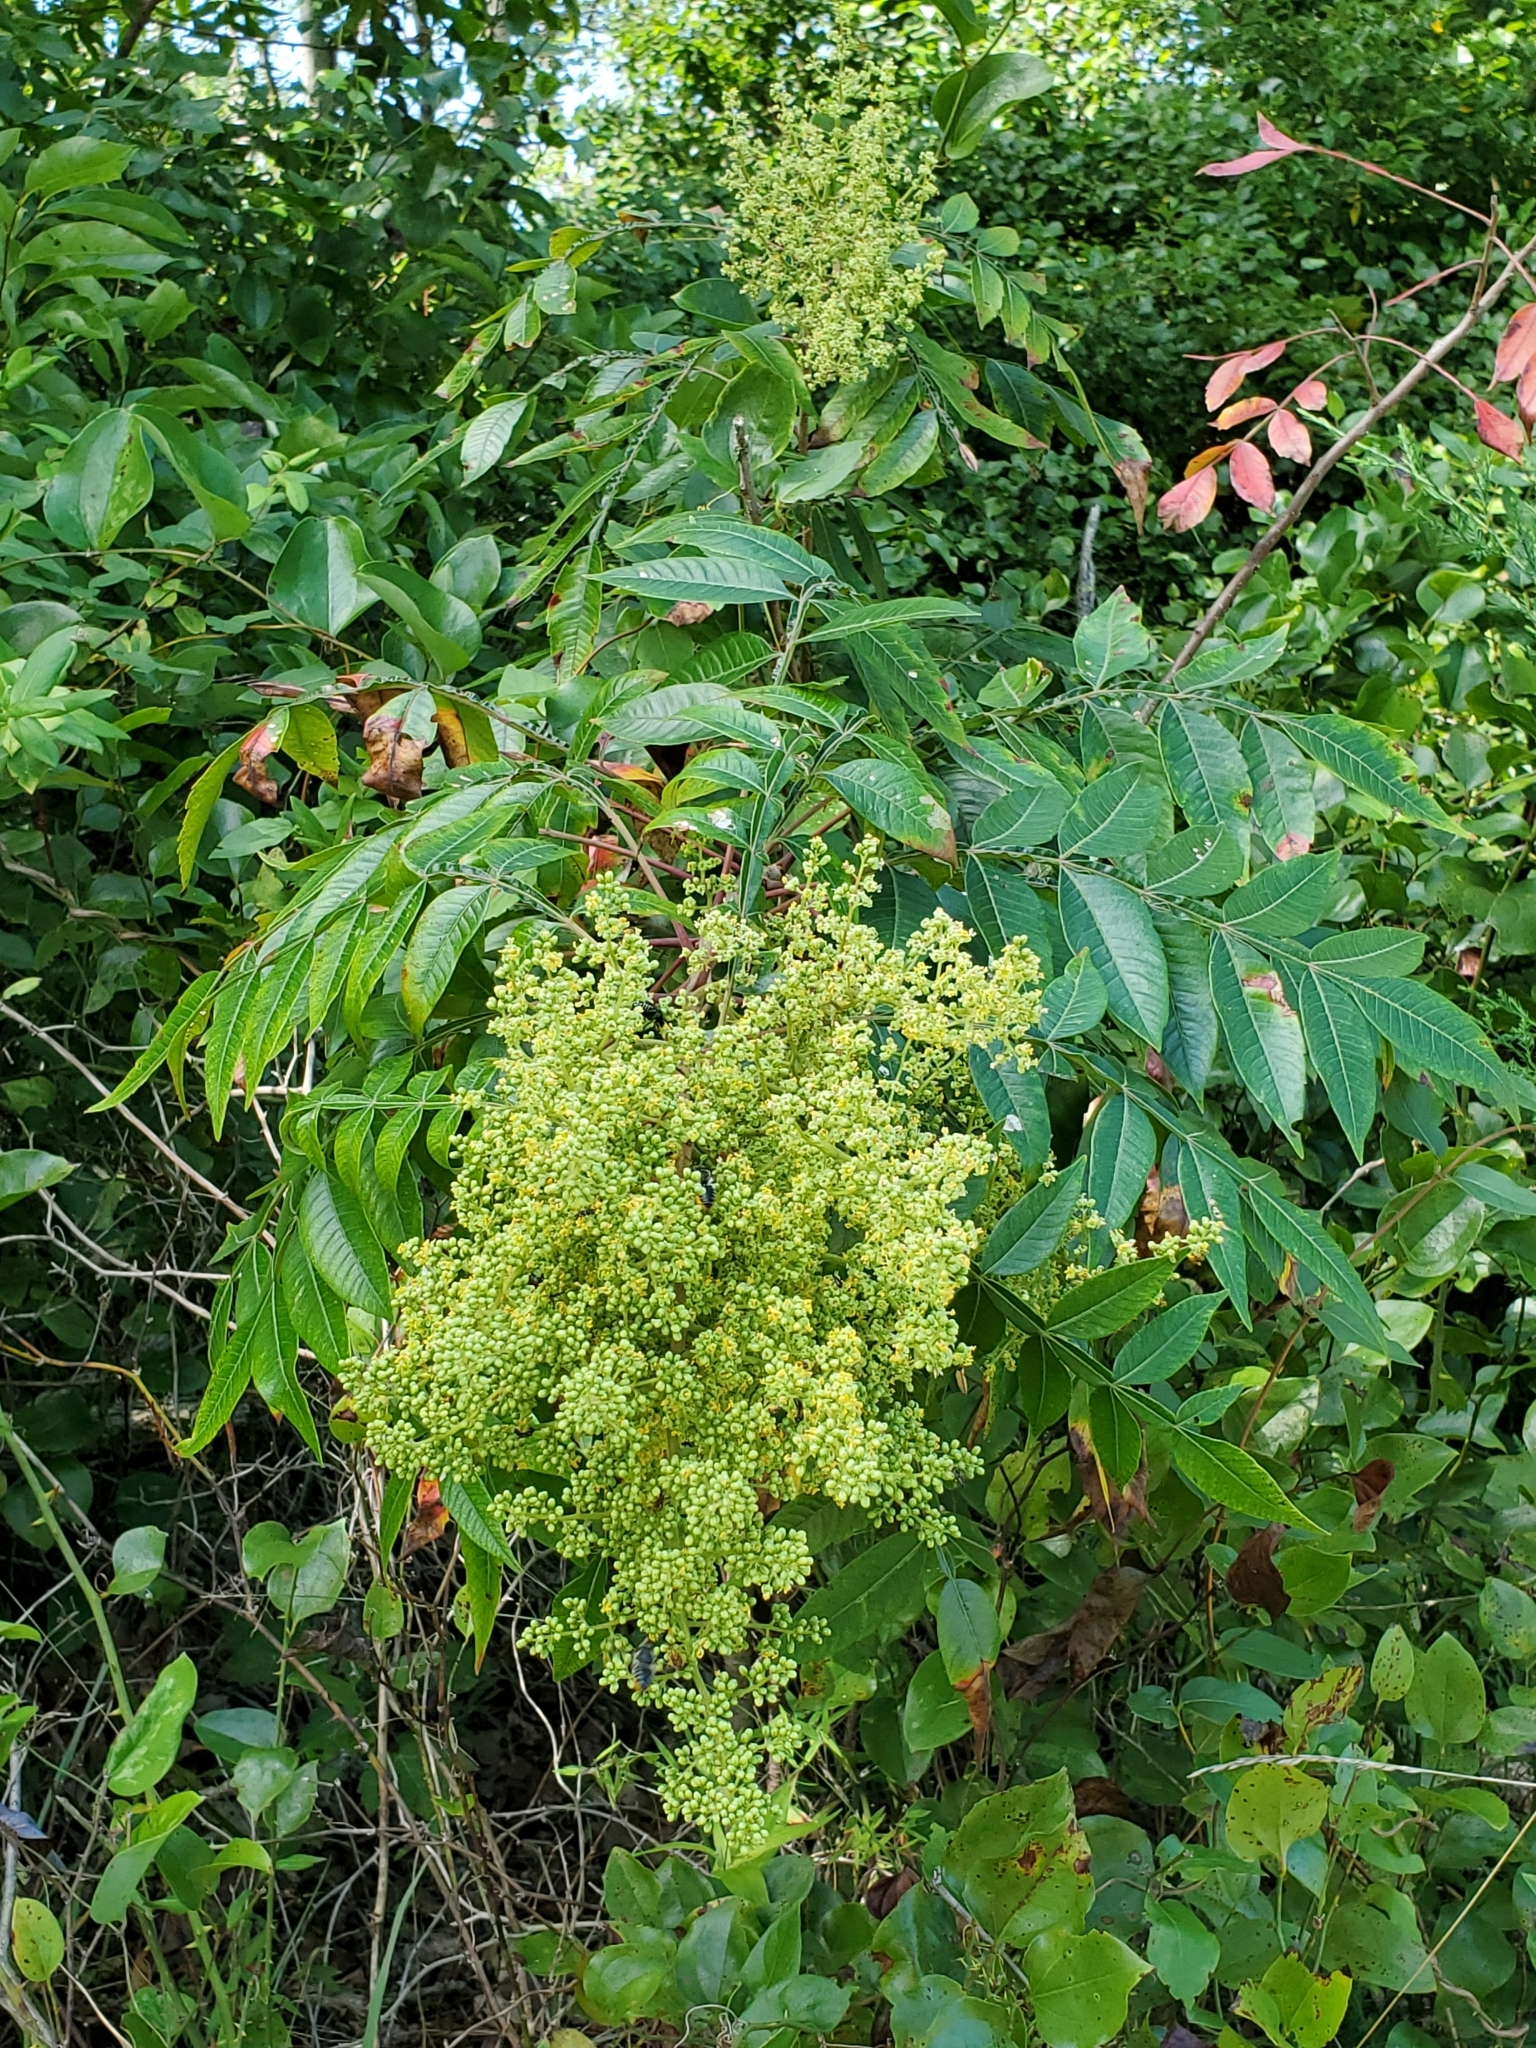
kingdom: Plantae
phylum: Tracheophyta
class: Magnoliopsida
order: Sapindales
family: Anacardiaceae
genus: Rhus
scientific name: Rhus copallina
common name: Shining sumac
